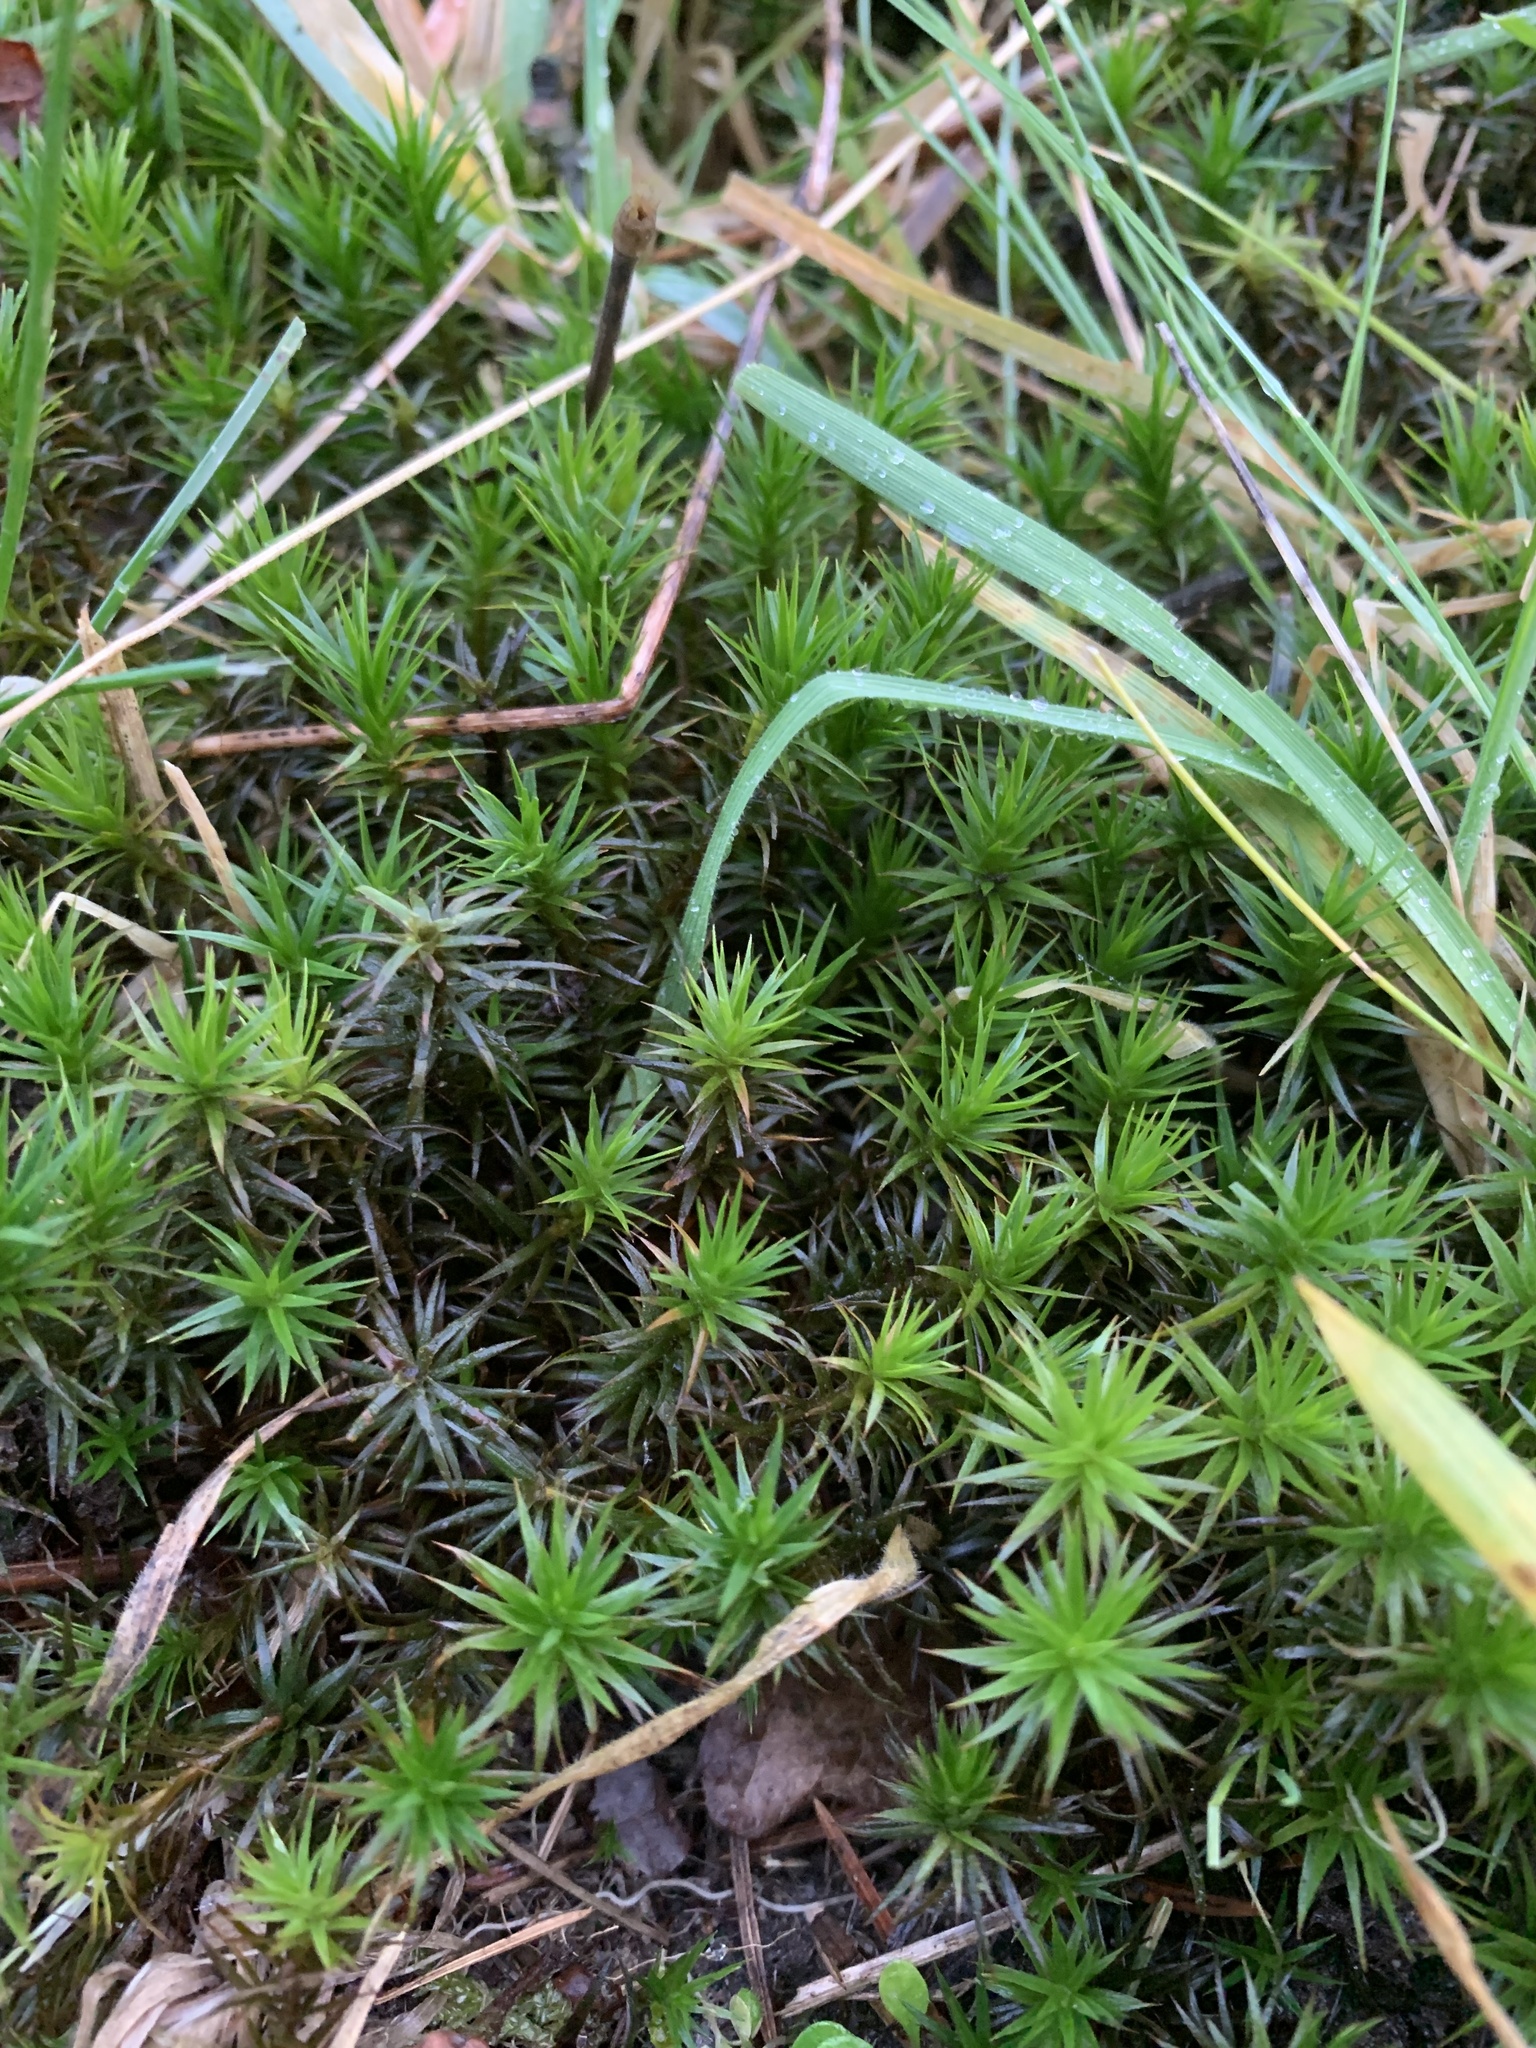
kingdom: Plantae
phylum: Bryophyta
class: Polytrichopsida
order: Polytrichales
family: Polytrichaceae
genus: Polytrichum
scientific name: Polytrichum formosum
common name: Bank haircap moss
